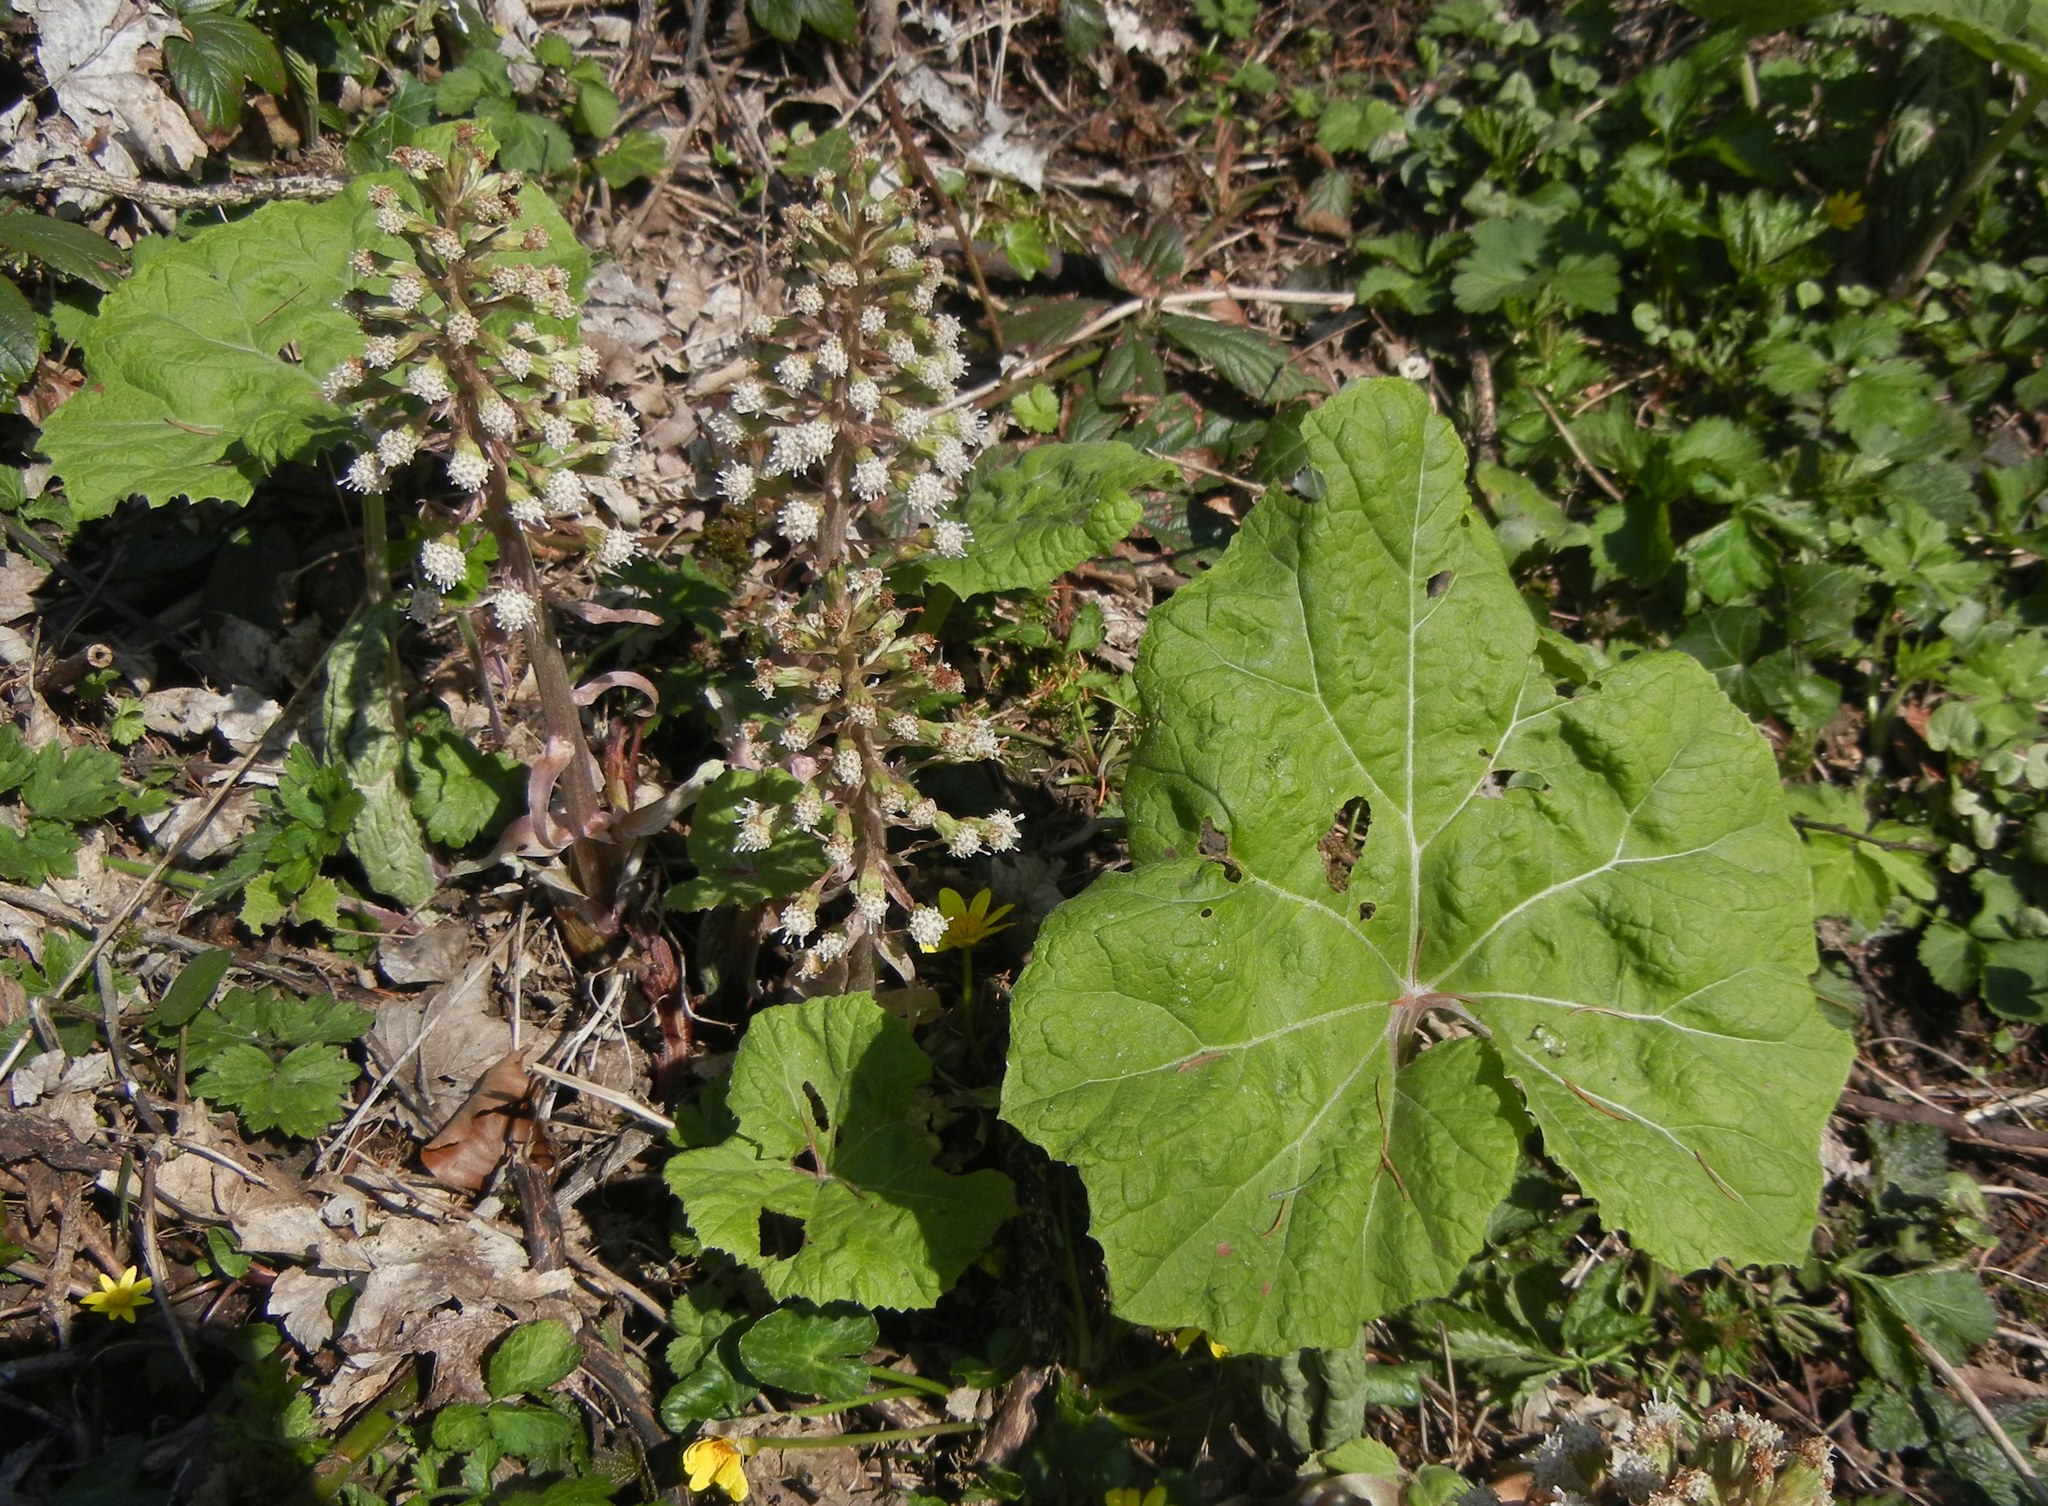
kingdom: Plantae
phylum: Tracheophyta
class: Magnoliopsida
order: Asterales
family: Asteraceae
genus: Petasites
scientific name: Petasites hybridus
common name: Butterbur
